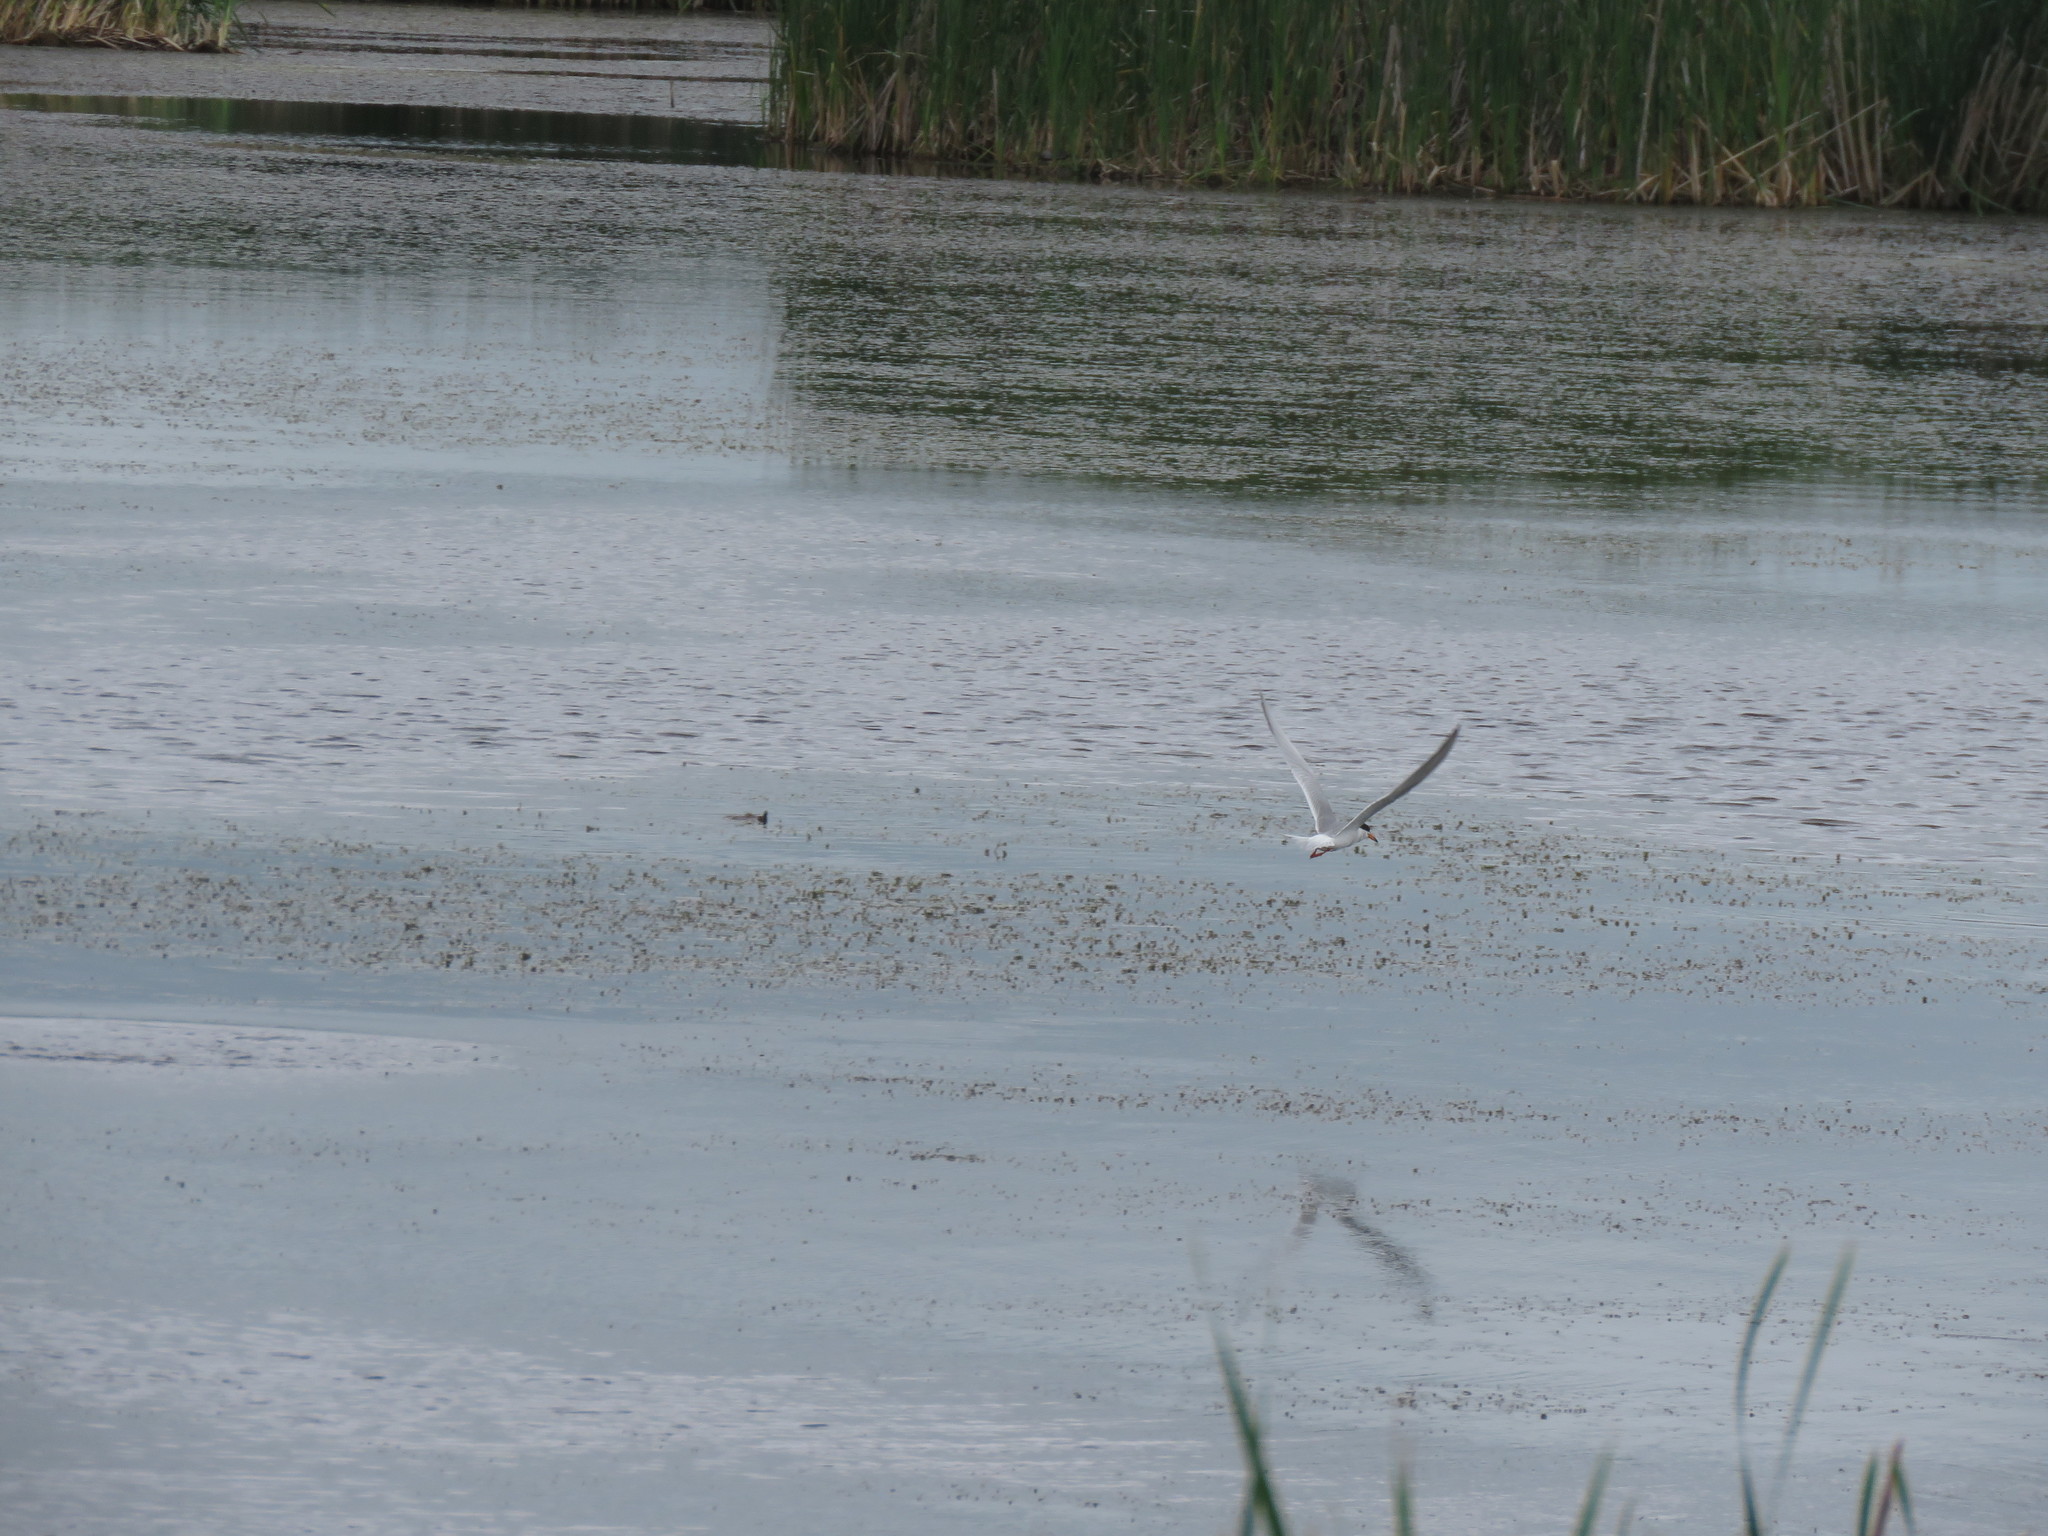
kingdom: Animalia
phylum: Chordata
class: Aves
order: Charadriiformes
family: Laridae
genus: Sterna
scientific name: Sterna forsteri
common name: Forster's tern
